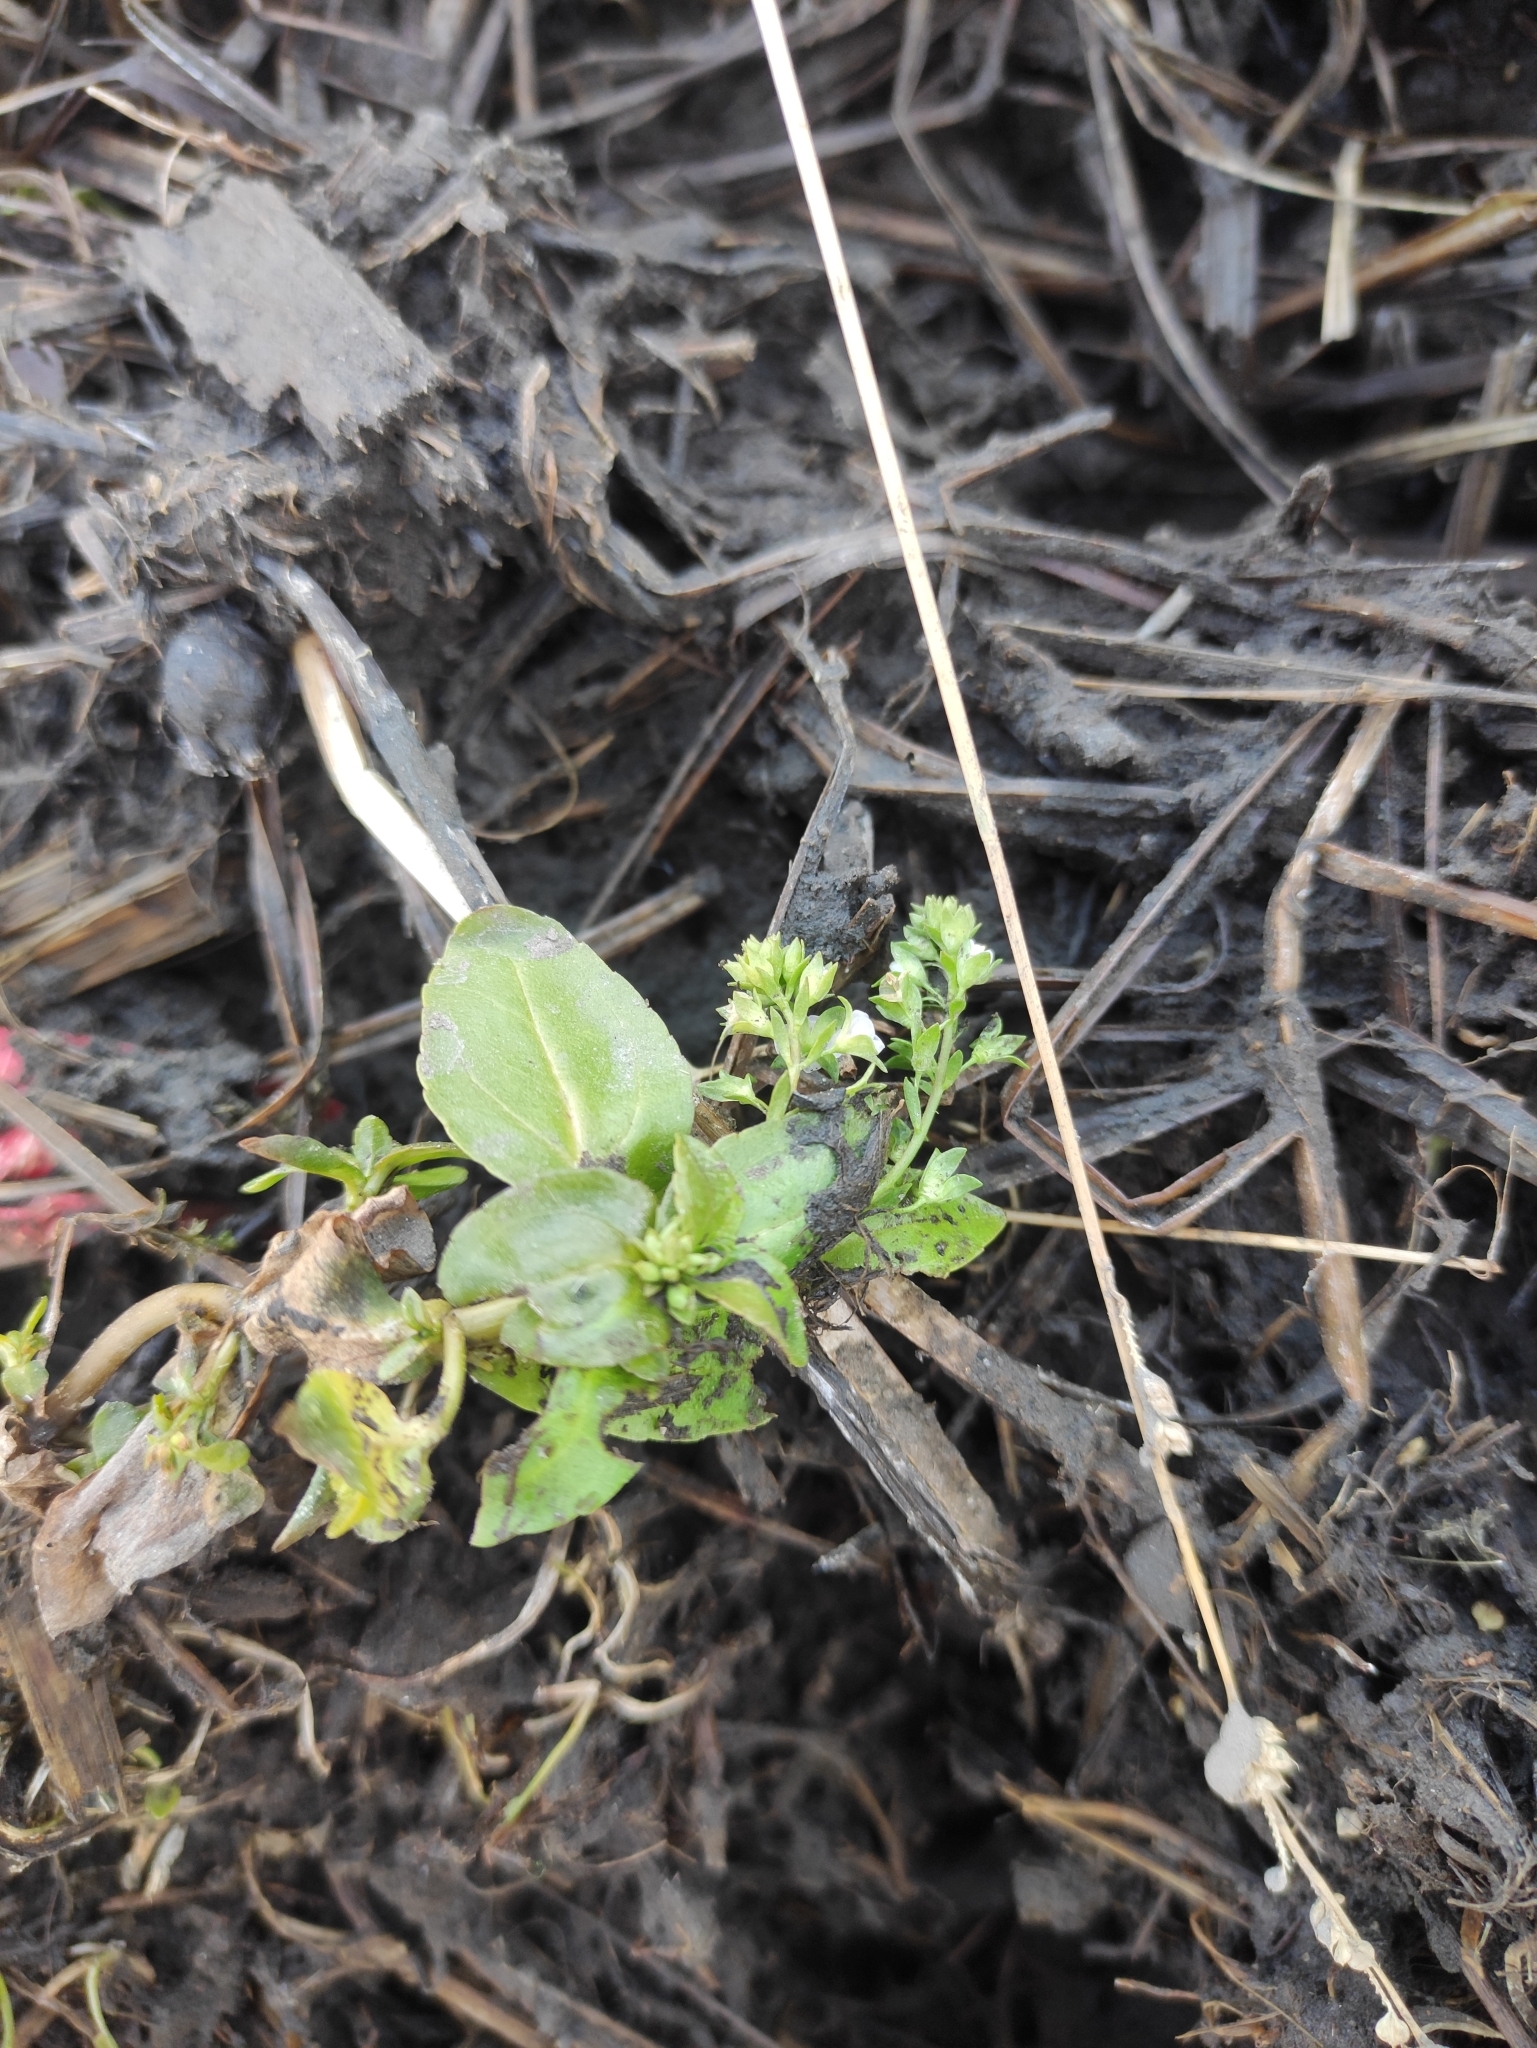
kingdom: Plantae
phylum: Tracheophyta
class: Magnoliopsida
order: Lamiales
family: Plantaginaceae
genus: Veronica
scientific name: Veronica beccabunga
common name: Brooklime
